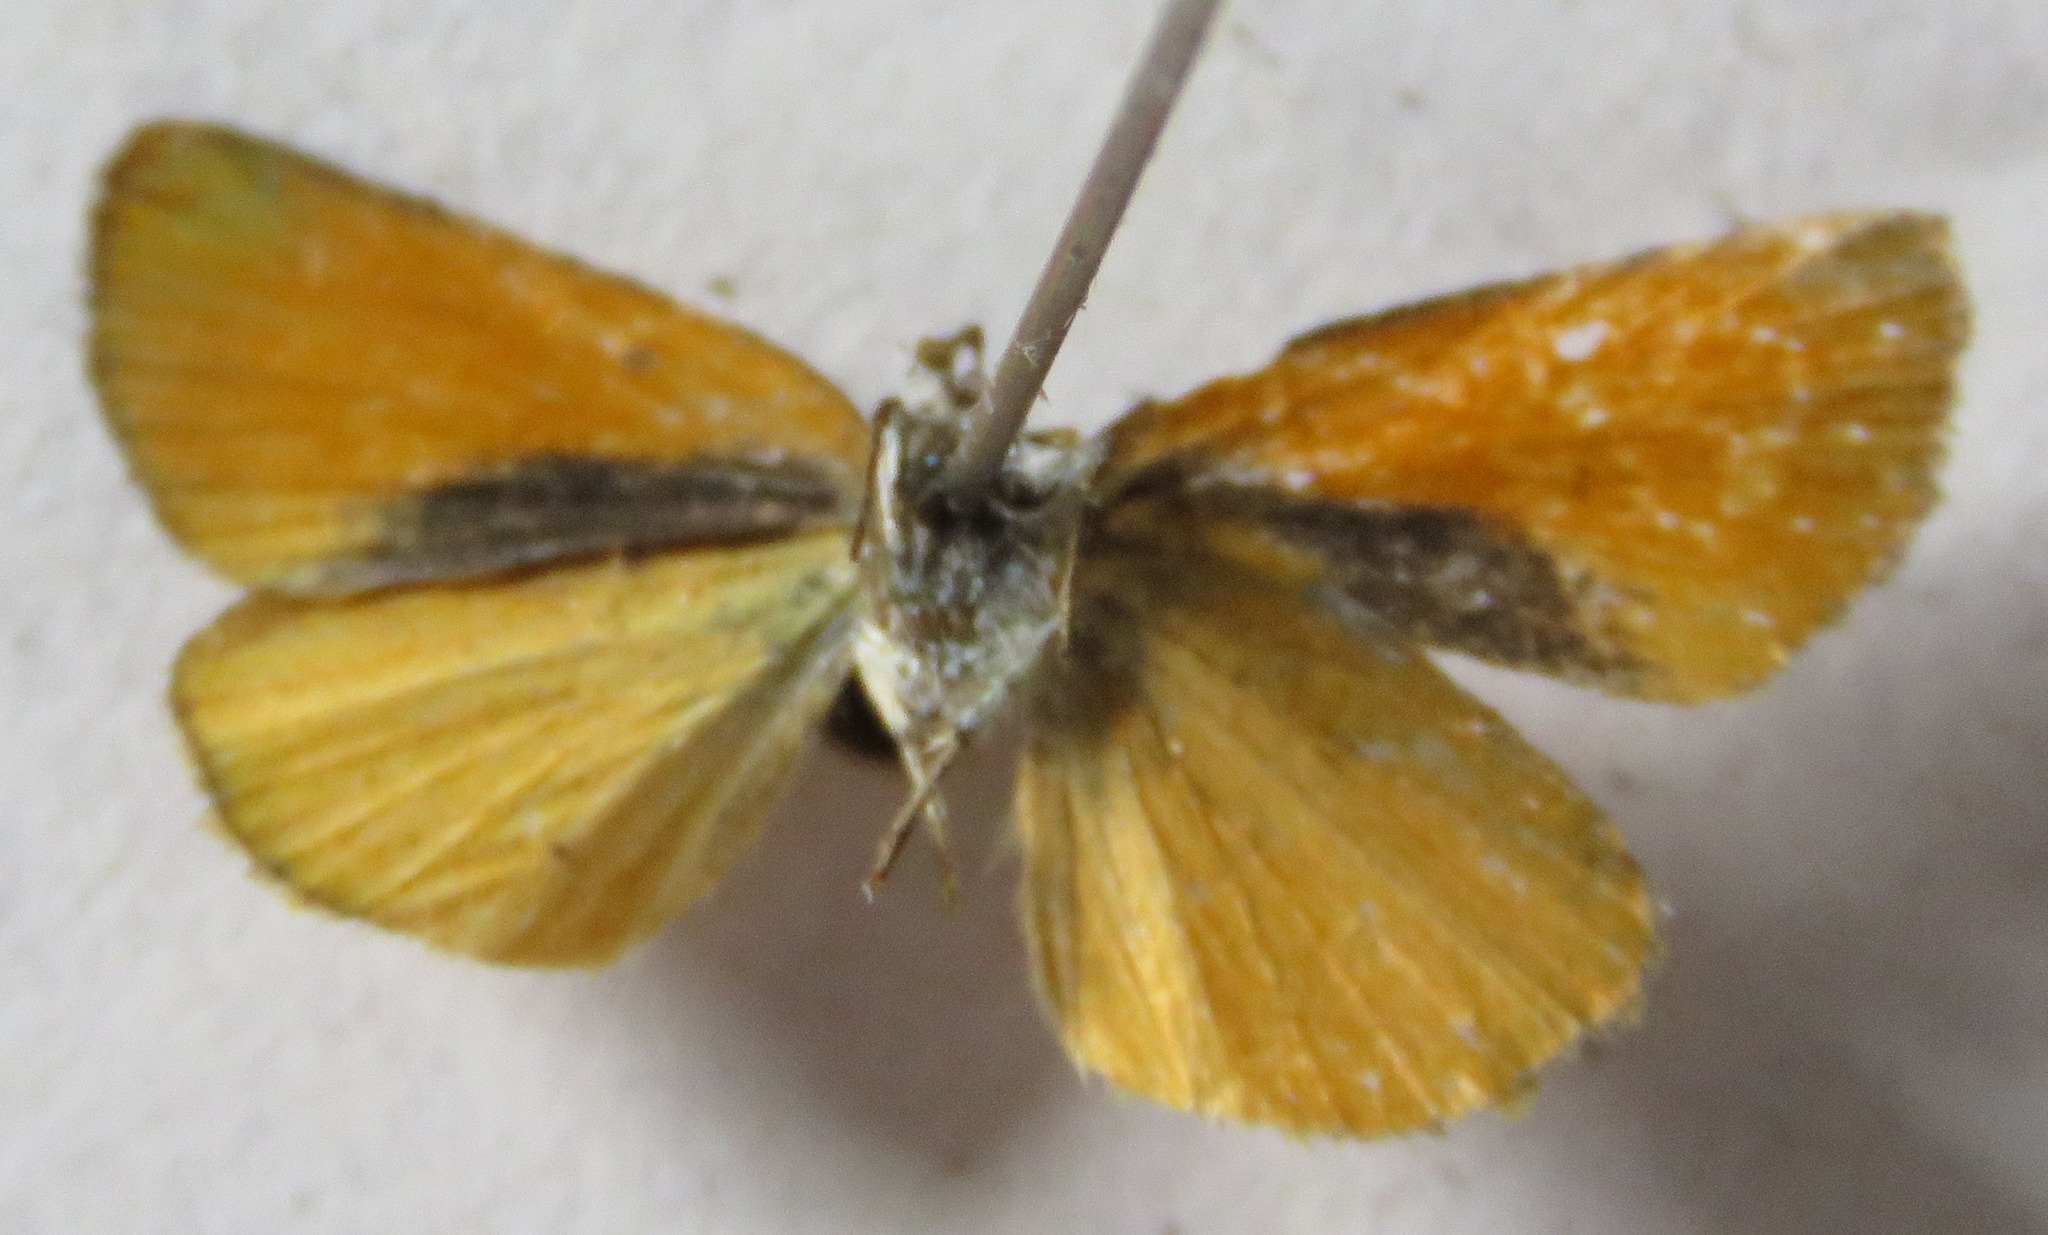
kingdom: Animalia
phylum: Arthropoda
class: Insecta
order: Lepidoptera
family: Hesperiidae
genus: Ancyloxypha
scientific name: Ancyloxypha arene
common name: Tropical least skipper
